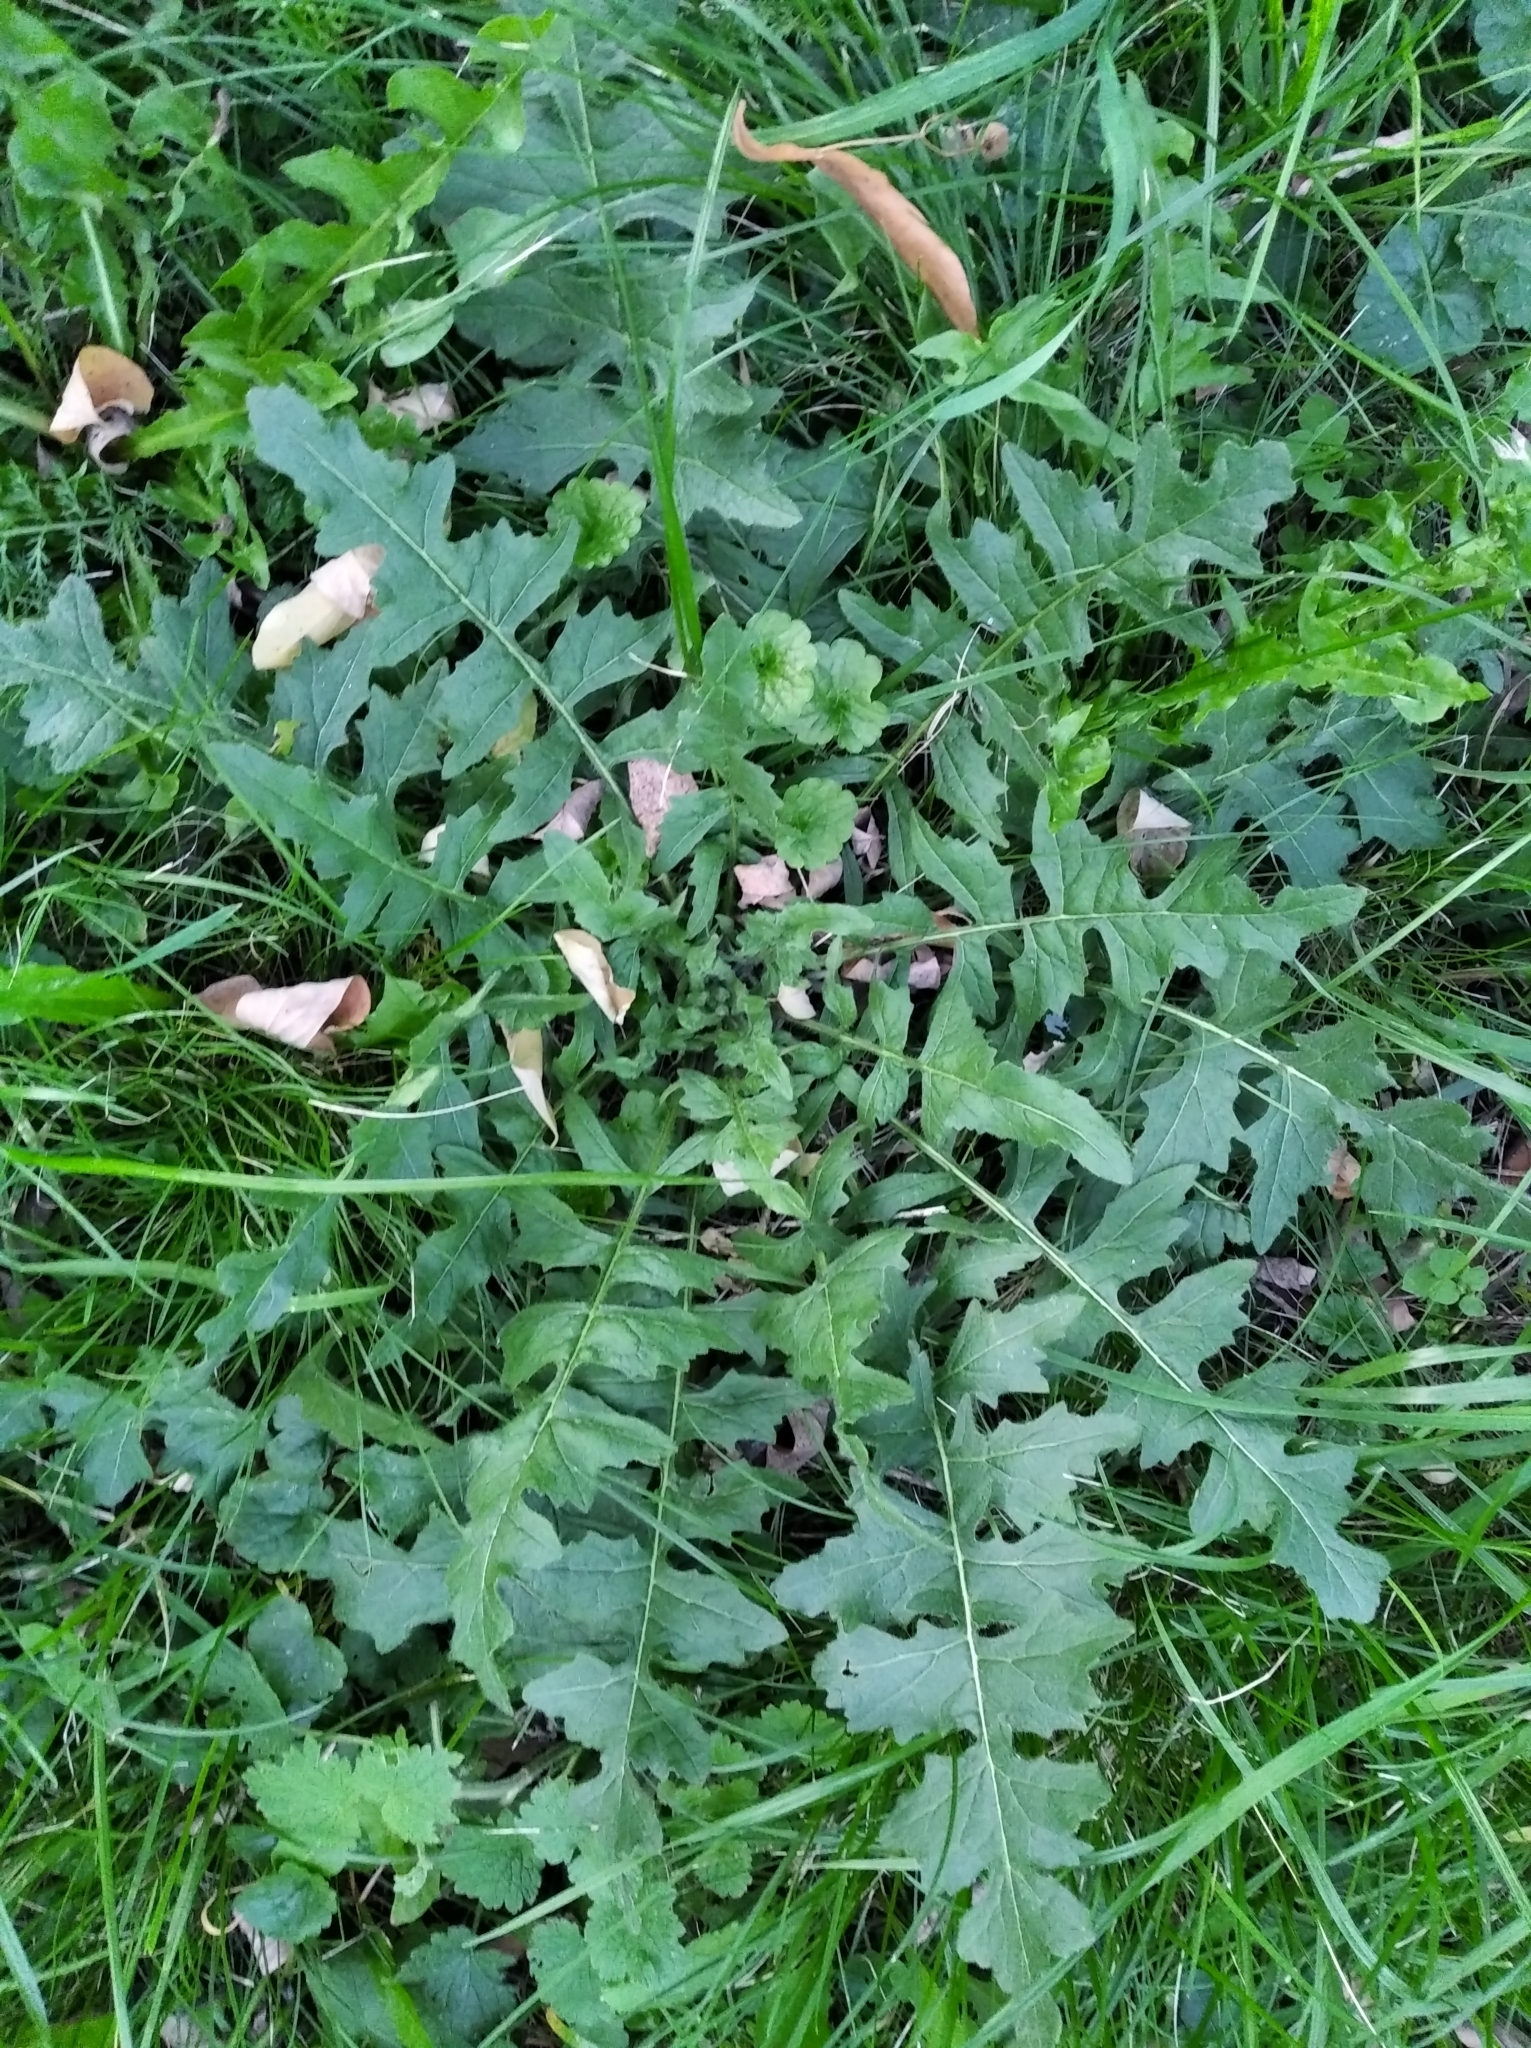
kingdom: Plantae
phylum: Tracheophyta
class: Magnoliopsida
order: Brassicales
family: Brassicaceae
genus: Sisymbrium
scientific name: Sisymbrium loeselii
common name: False london-rocket
